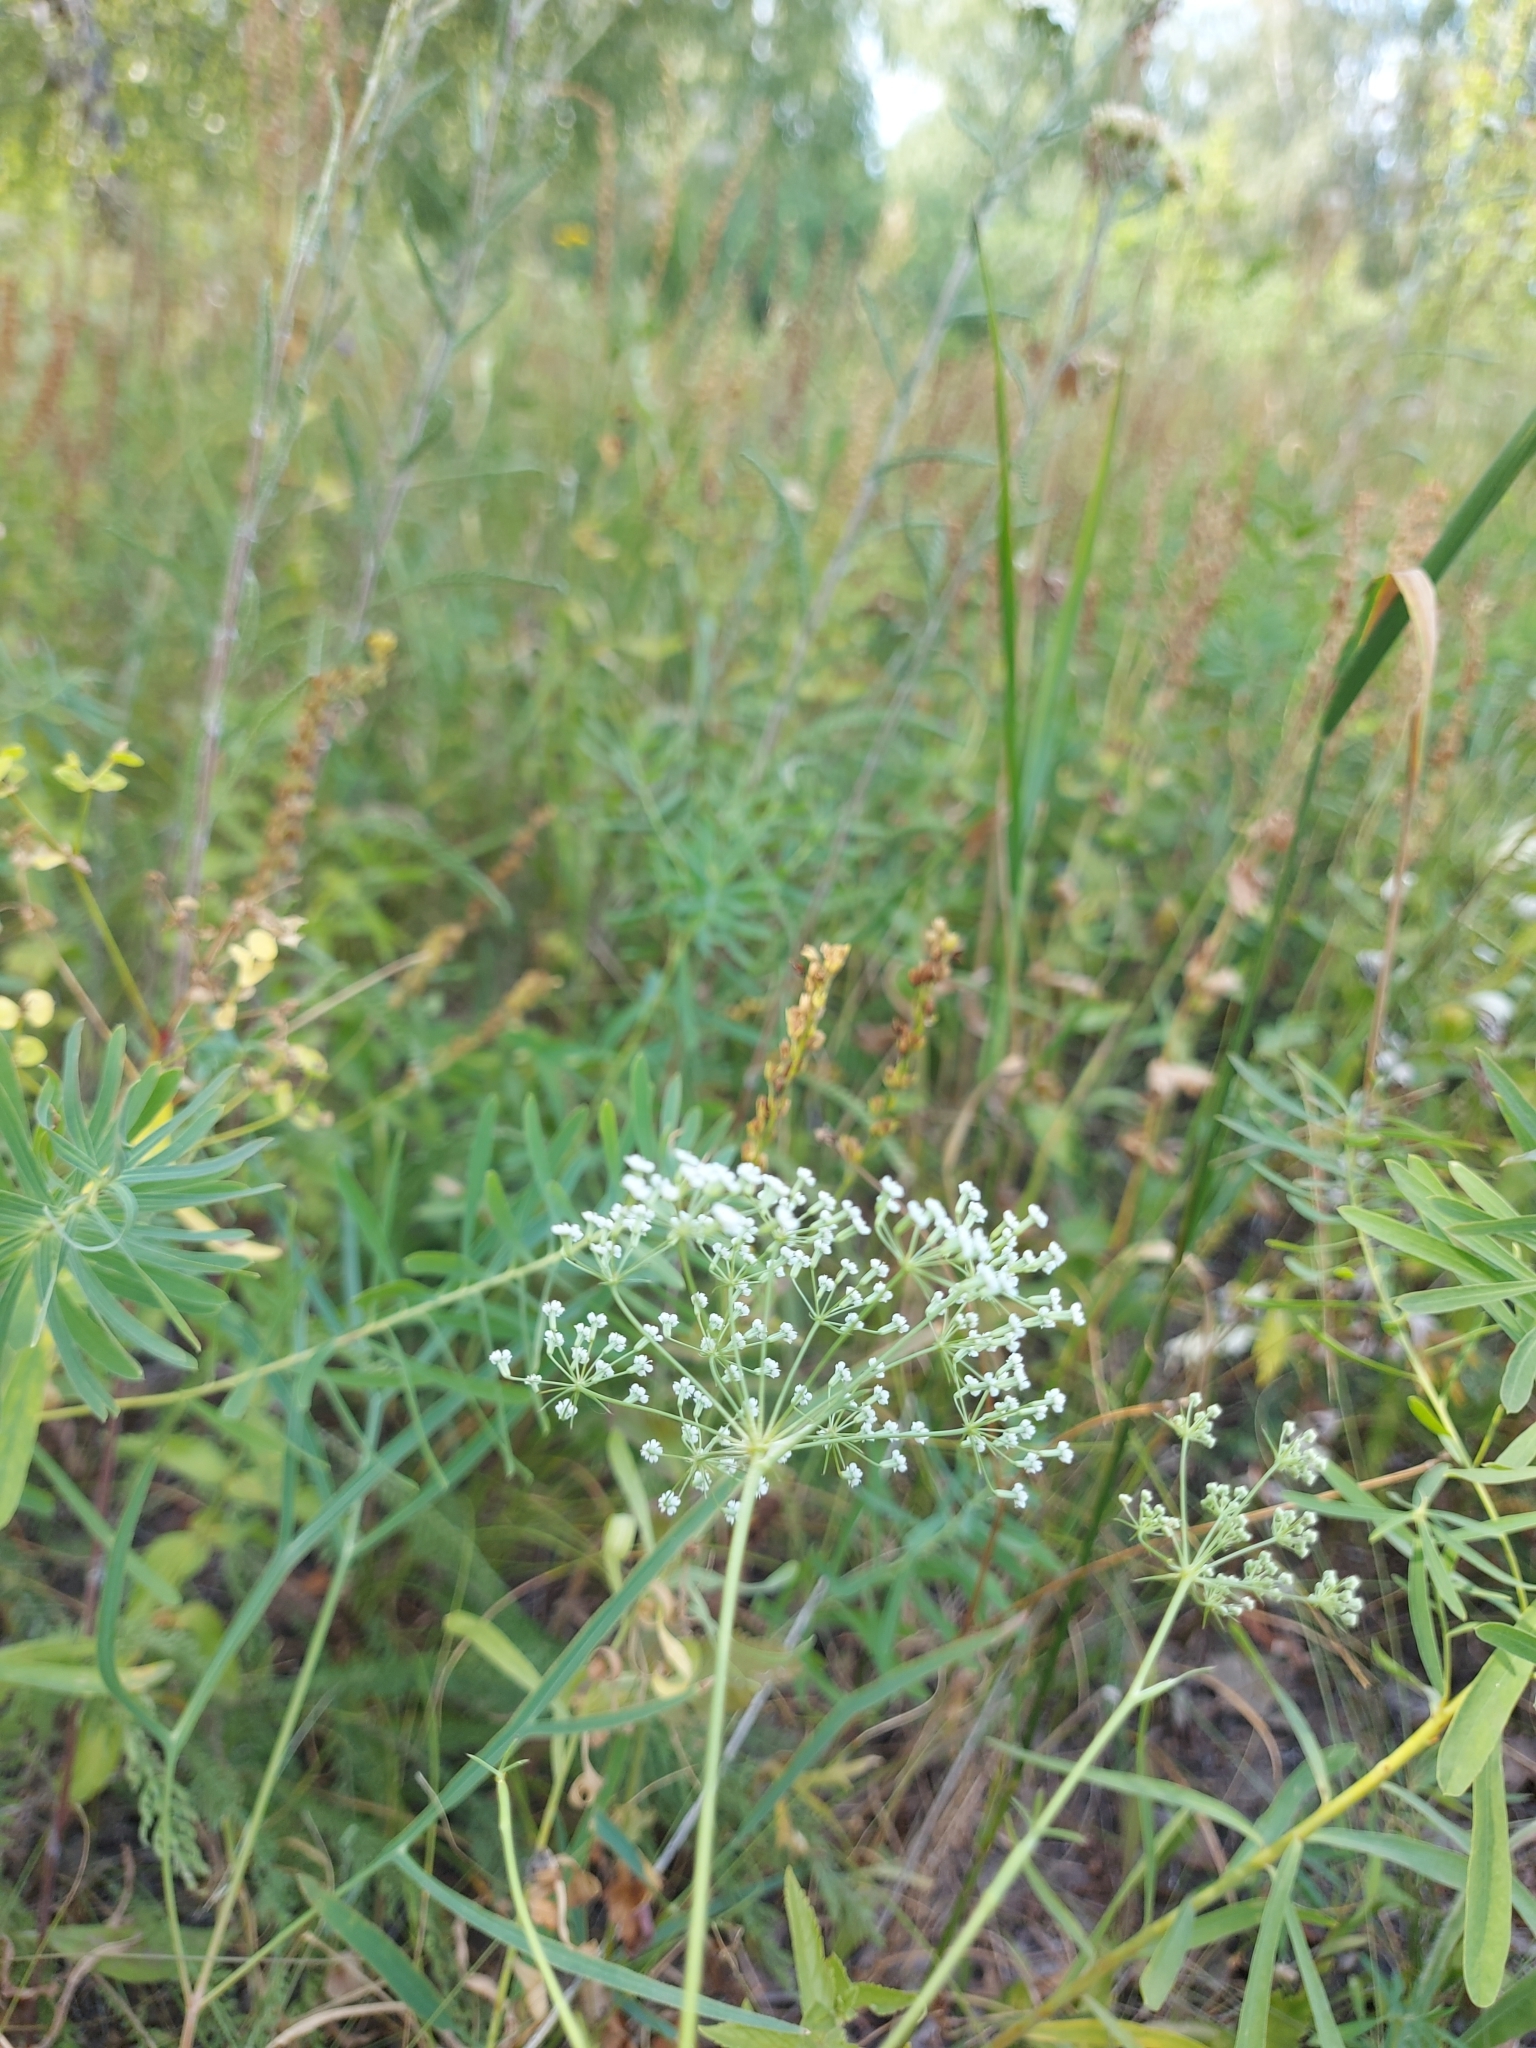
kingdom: Plantae
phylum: Tracheophyta
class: Magnoliopsida
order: Apiales
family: Apiaceae
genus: Falcaria
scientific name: Falcaria vulgaris
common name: Longleaf
